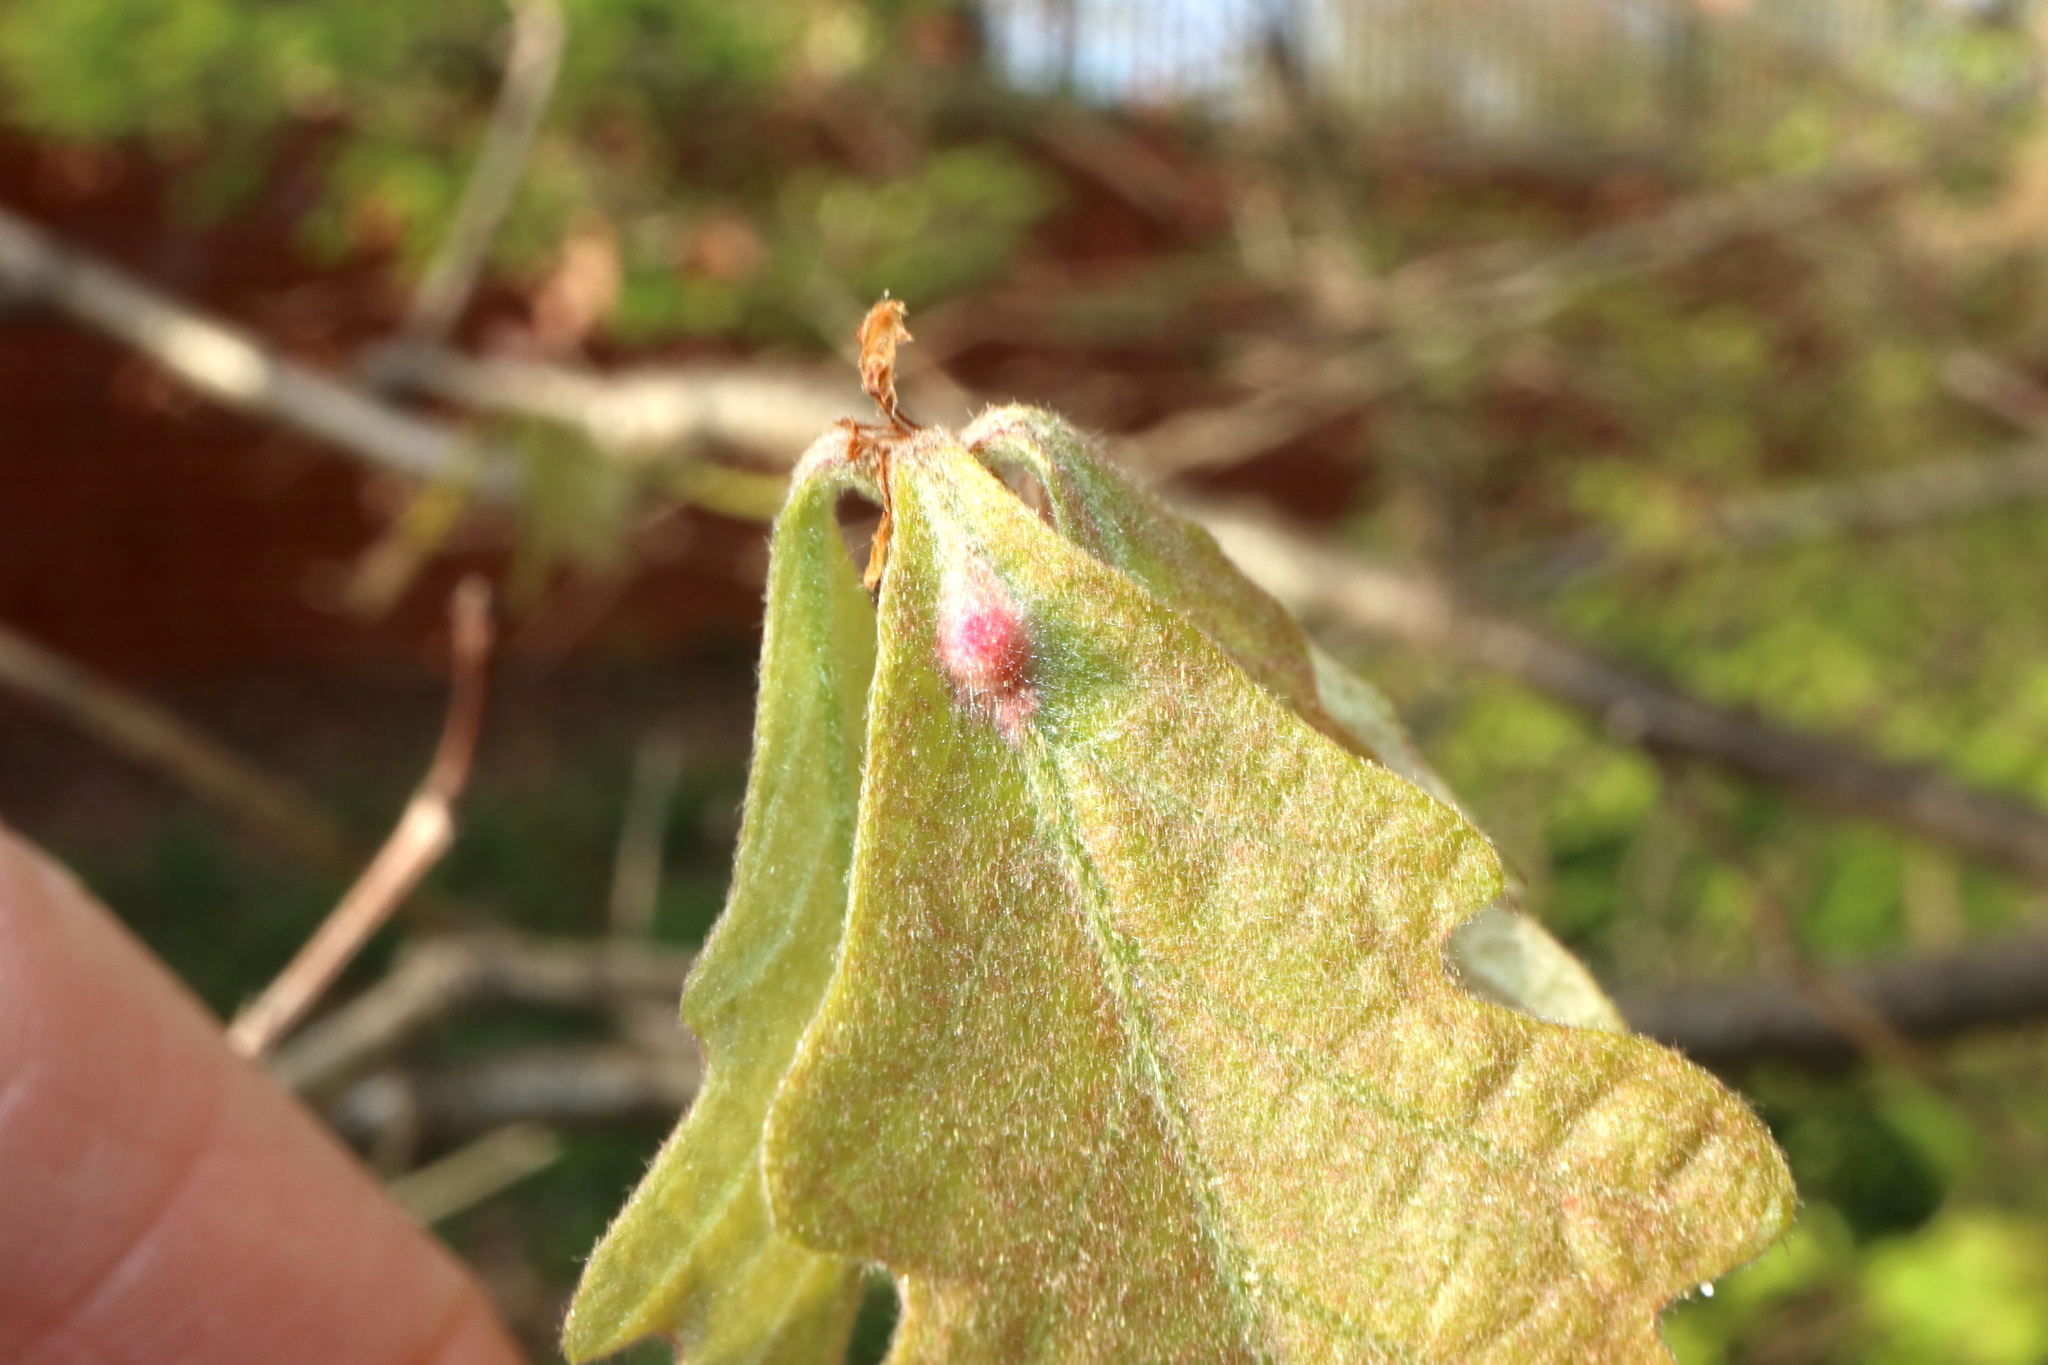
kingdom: Animalia
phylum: Arthropoda
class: Insecta
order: Hymenoptera
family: Cynipidae
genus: Andricus
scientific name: Andricus
